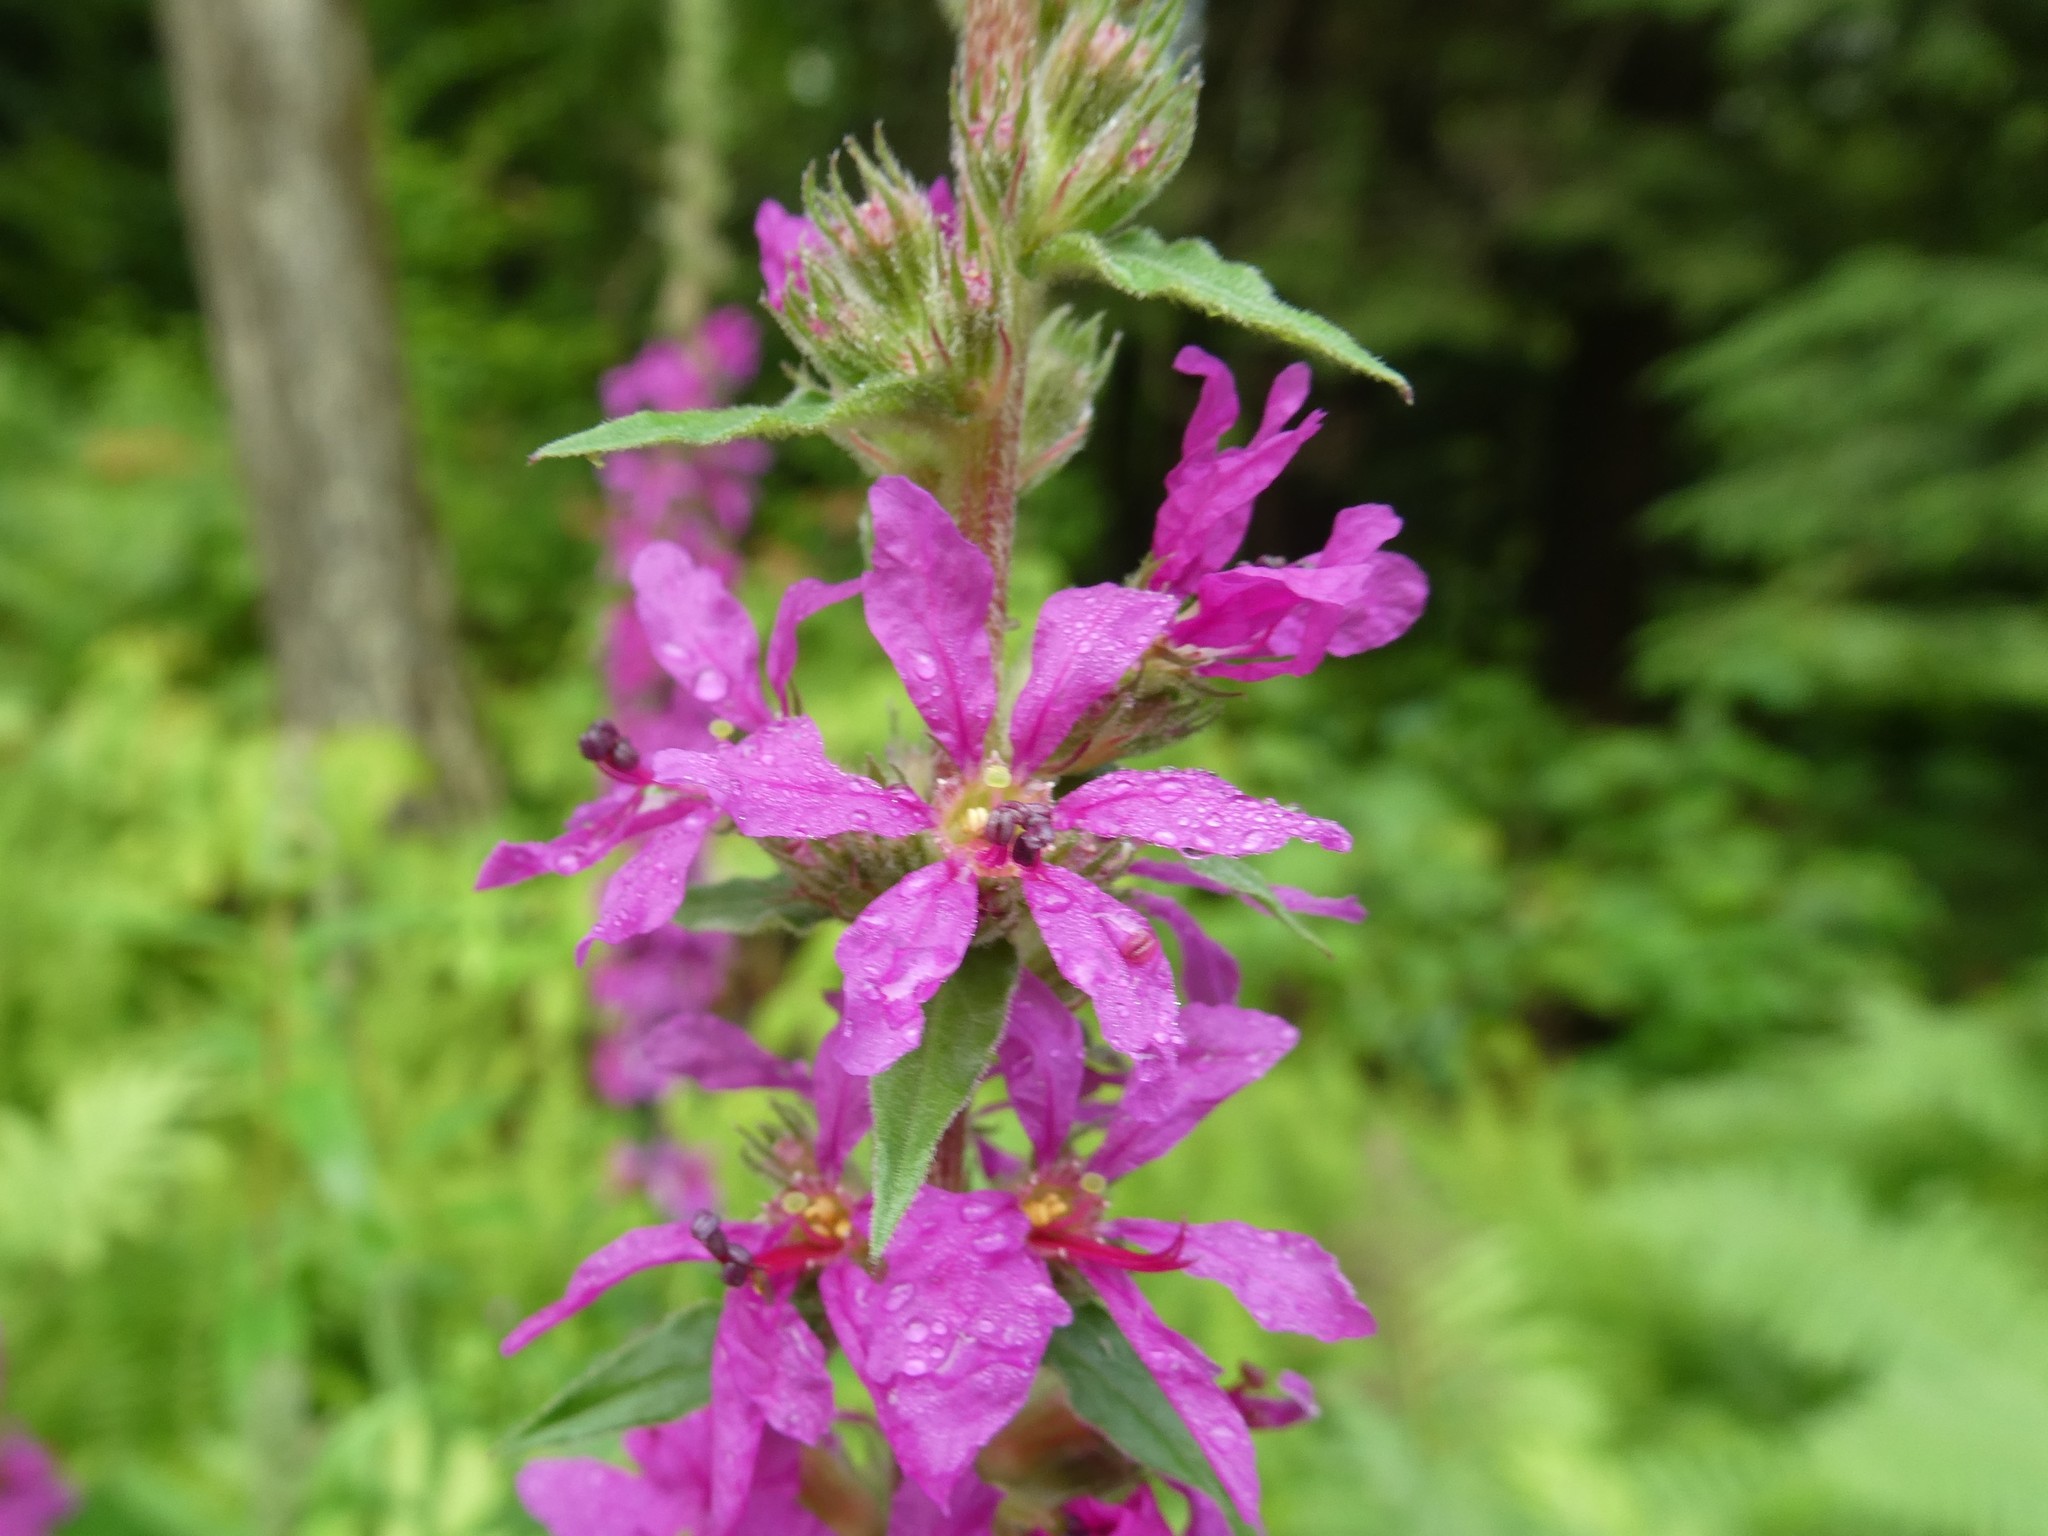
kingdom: Plantae
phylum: Tracheophyta
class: Magnoliopsida
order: Myrtales
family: Lythraceae
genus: Lythrum
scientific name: Lythrum salicaria
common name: Purple loosestrife
